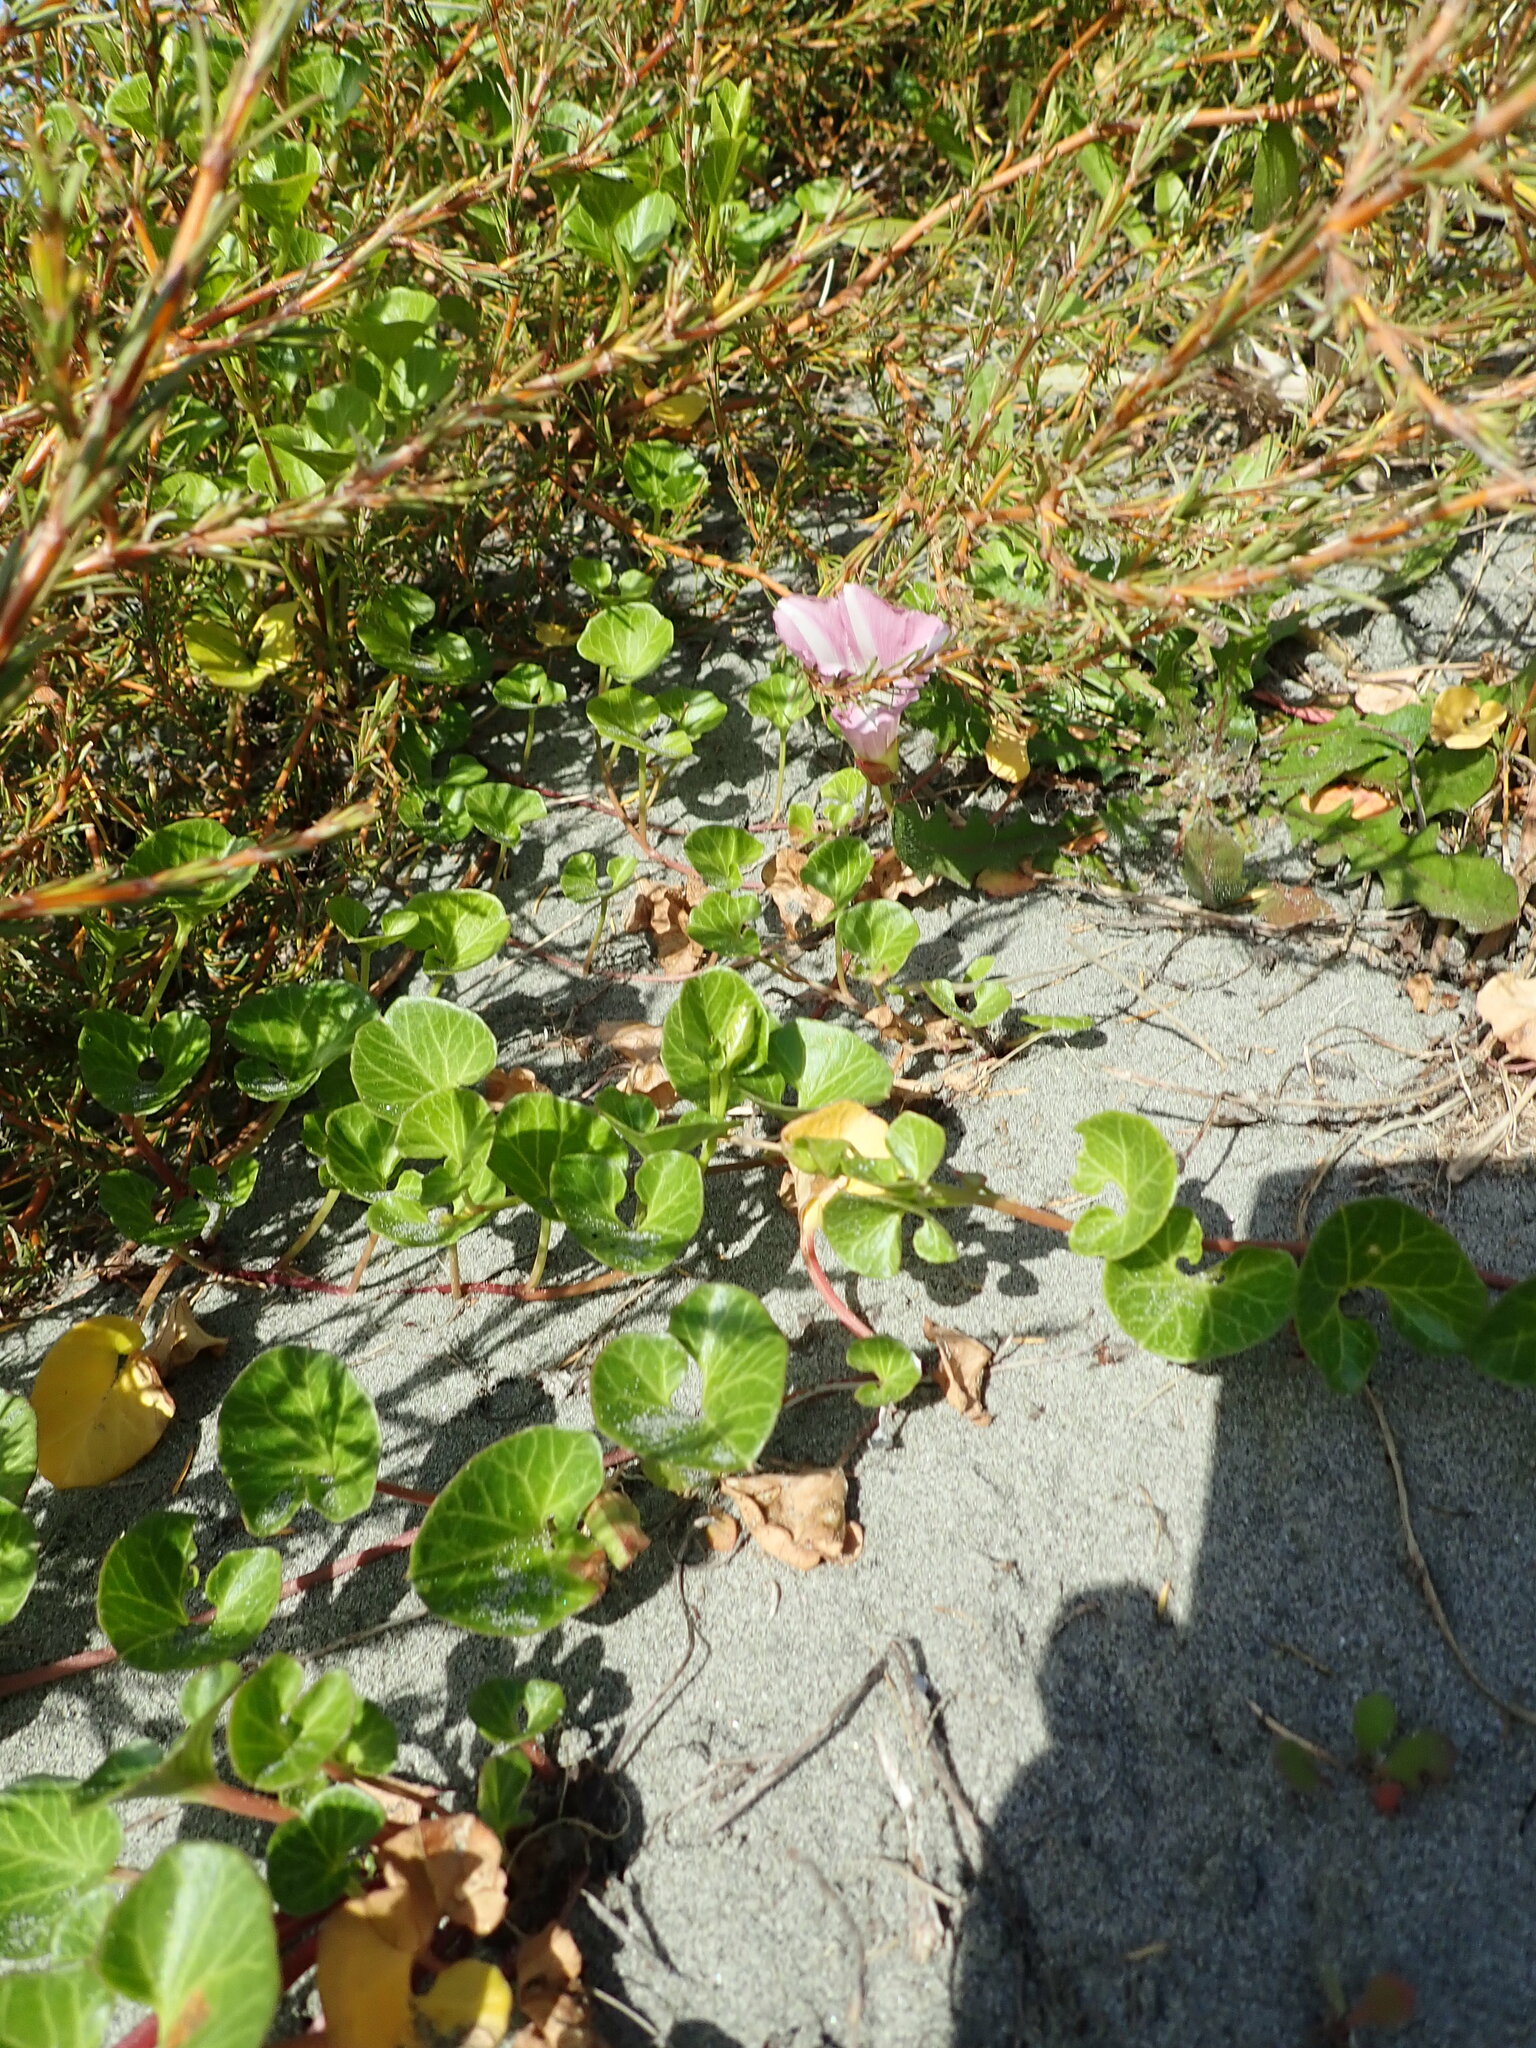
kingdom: Plantae
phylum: Tracheophyta
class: Magnoliopsida
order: Solanales
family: Convolvulaceae
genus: Calystegia
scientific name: Calystegia soldanella
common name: Sea bindweed
